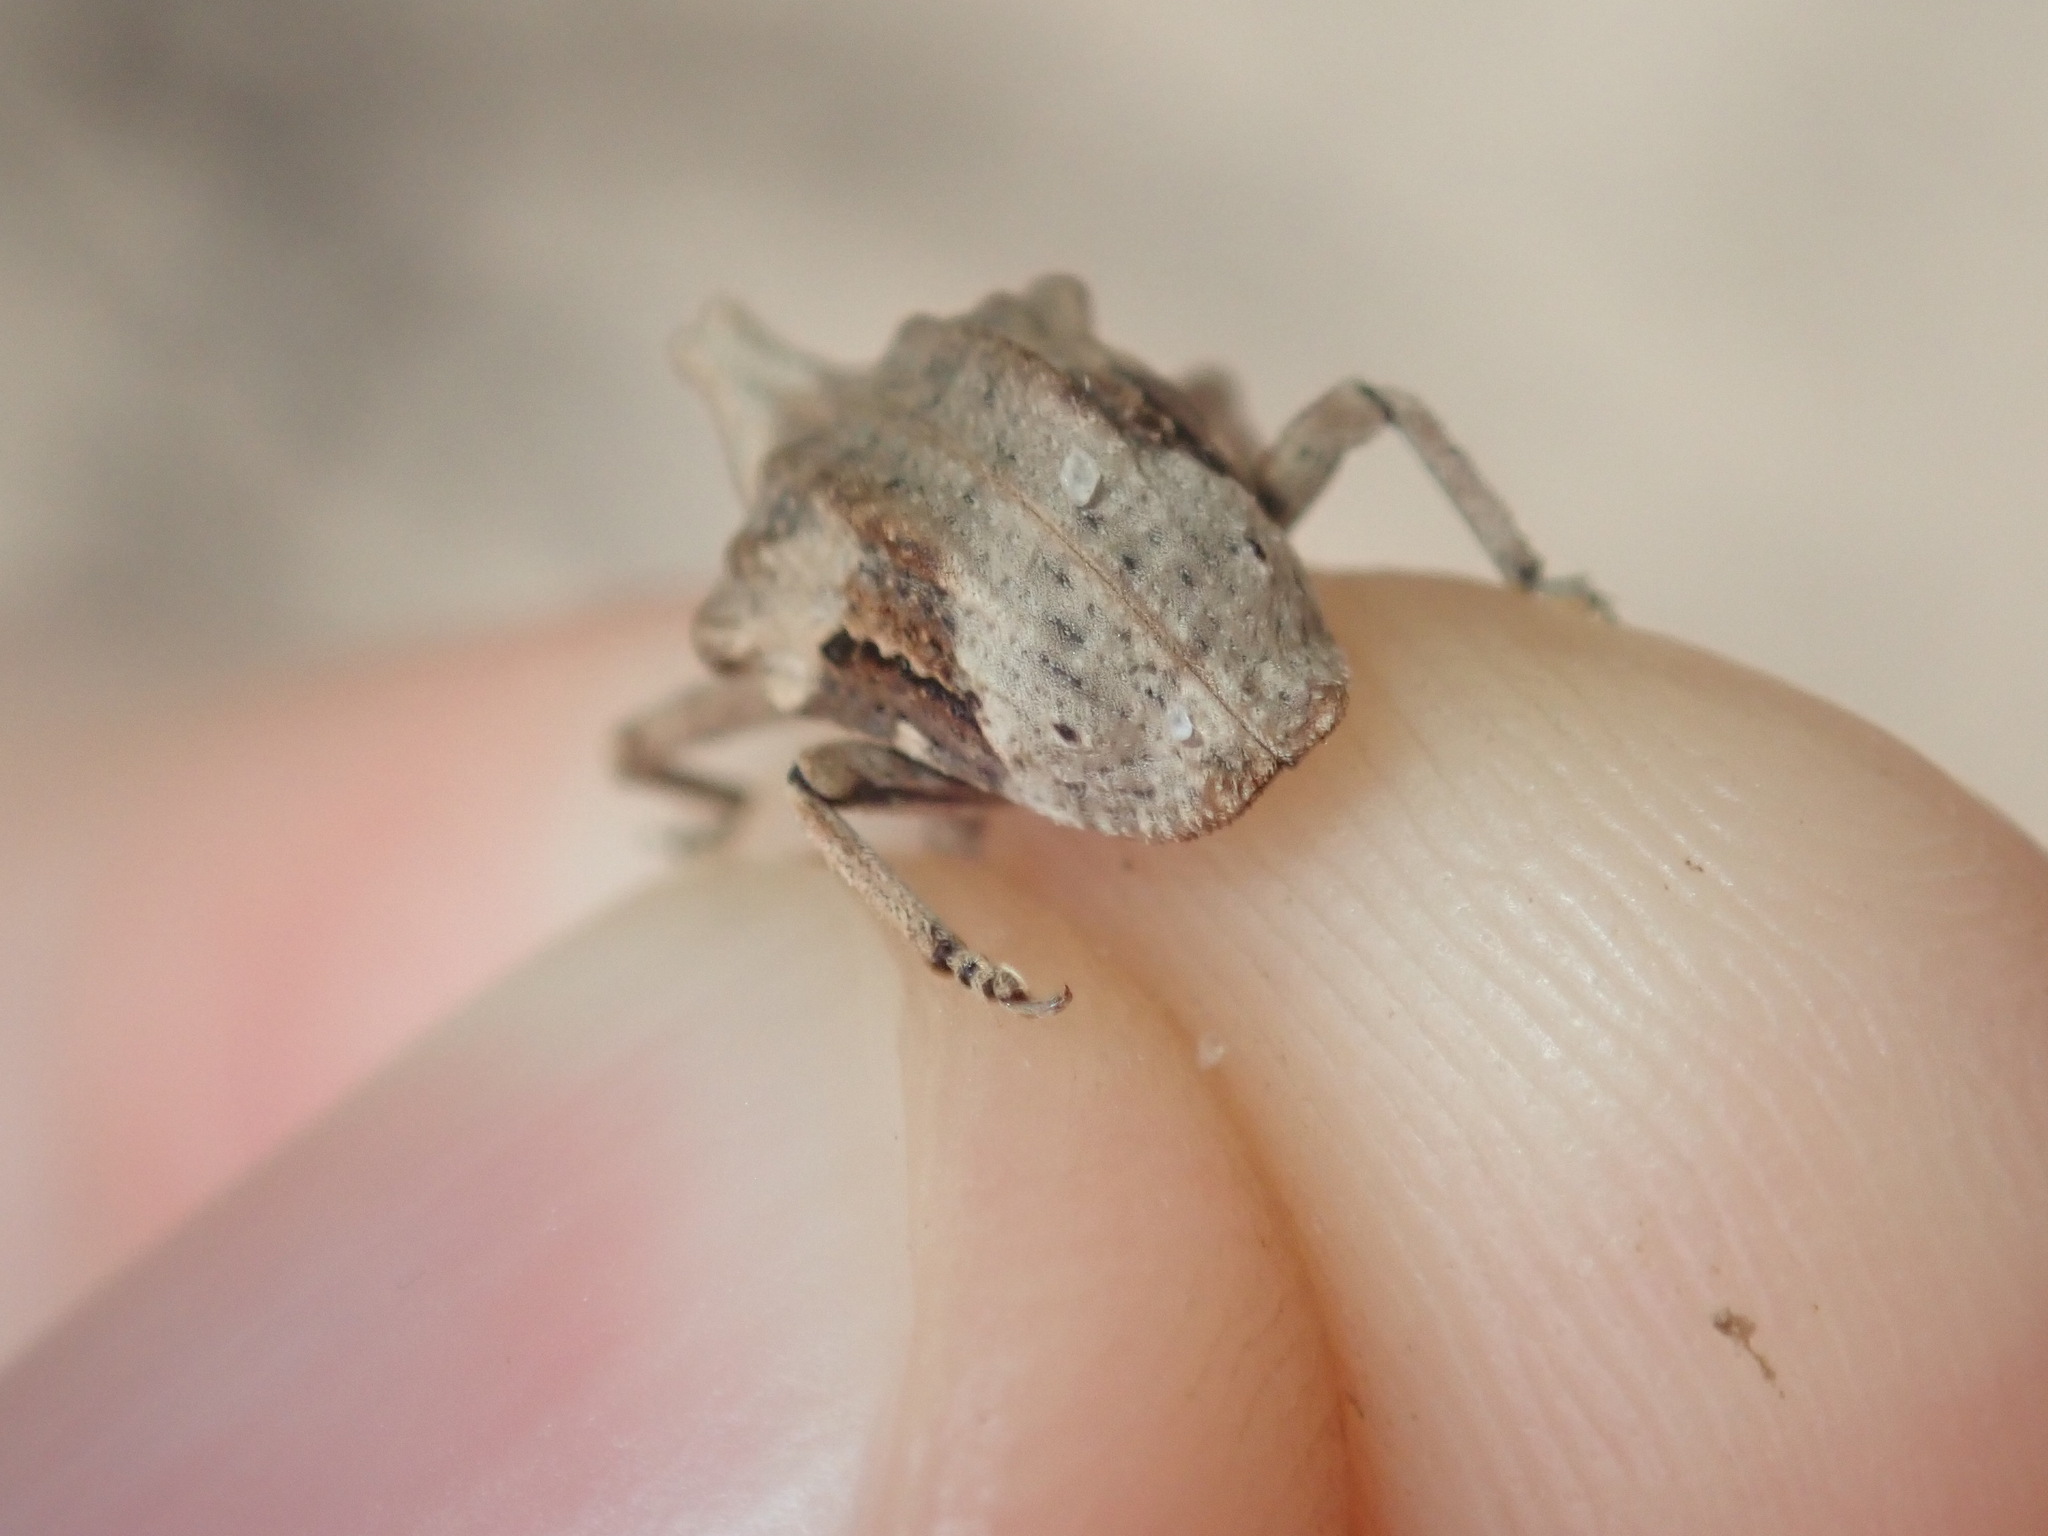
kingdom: Animalia
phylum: Arthropoda
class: Insecta
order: Coleoptera
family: Curculionidae
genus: Oemethylus
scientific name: Oemethylus
